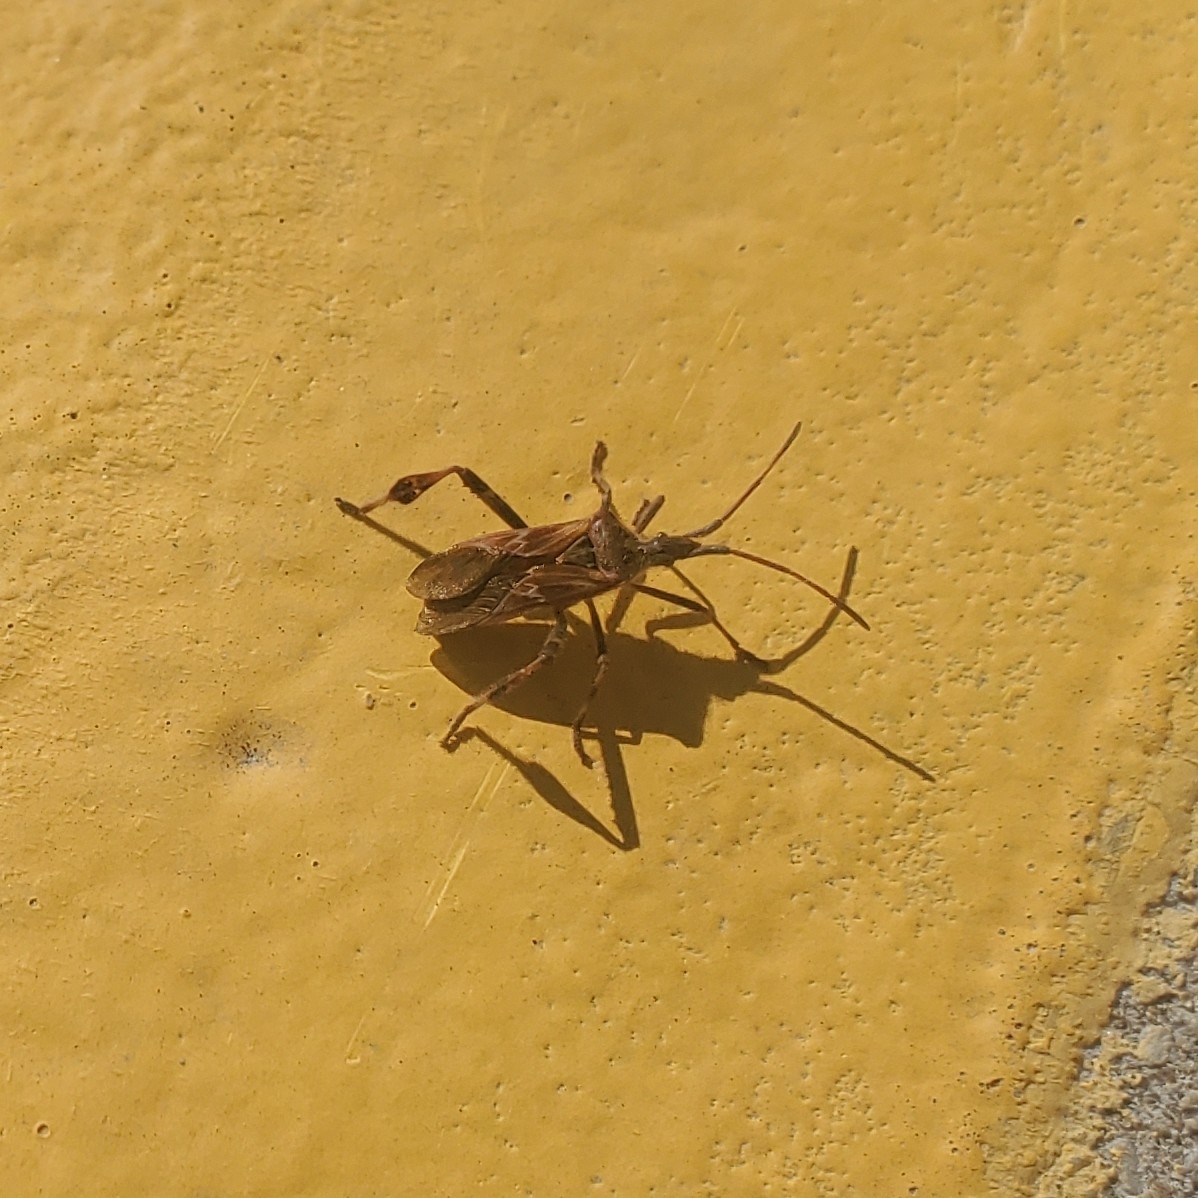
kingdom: Animalia
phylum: Arthropoda
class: Insecta
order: Hemiptera
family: Coreidae
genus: Leptoglossus
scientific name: Leptoglossus occidentalis
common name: Western conifer-seed bug
